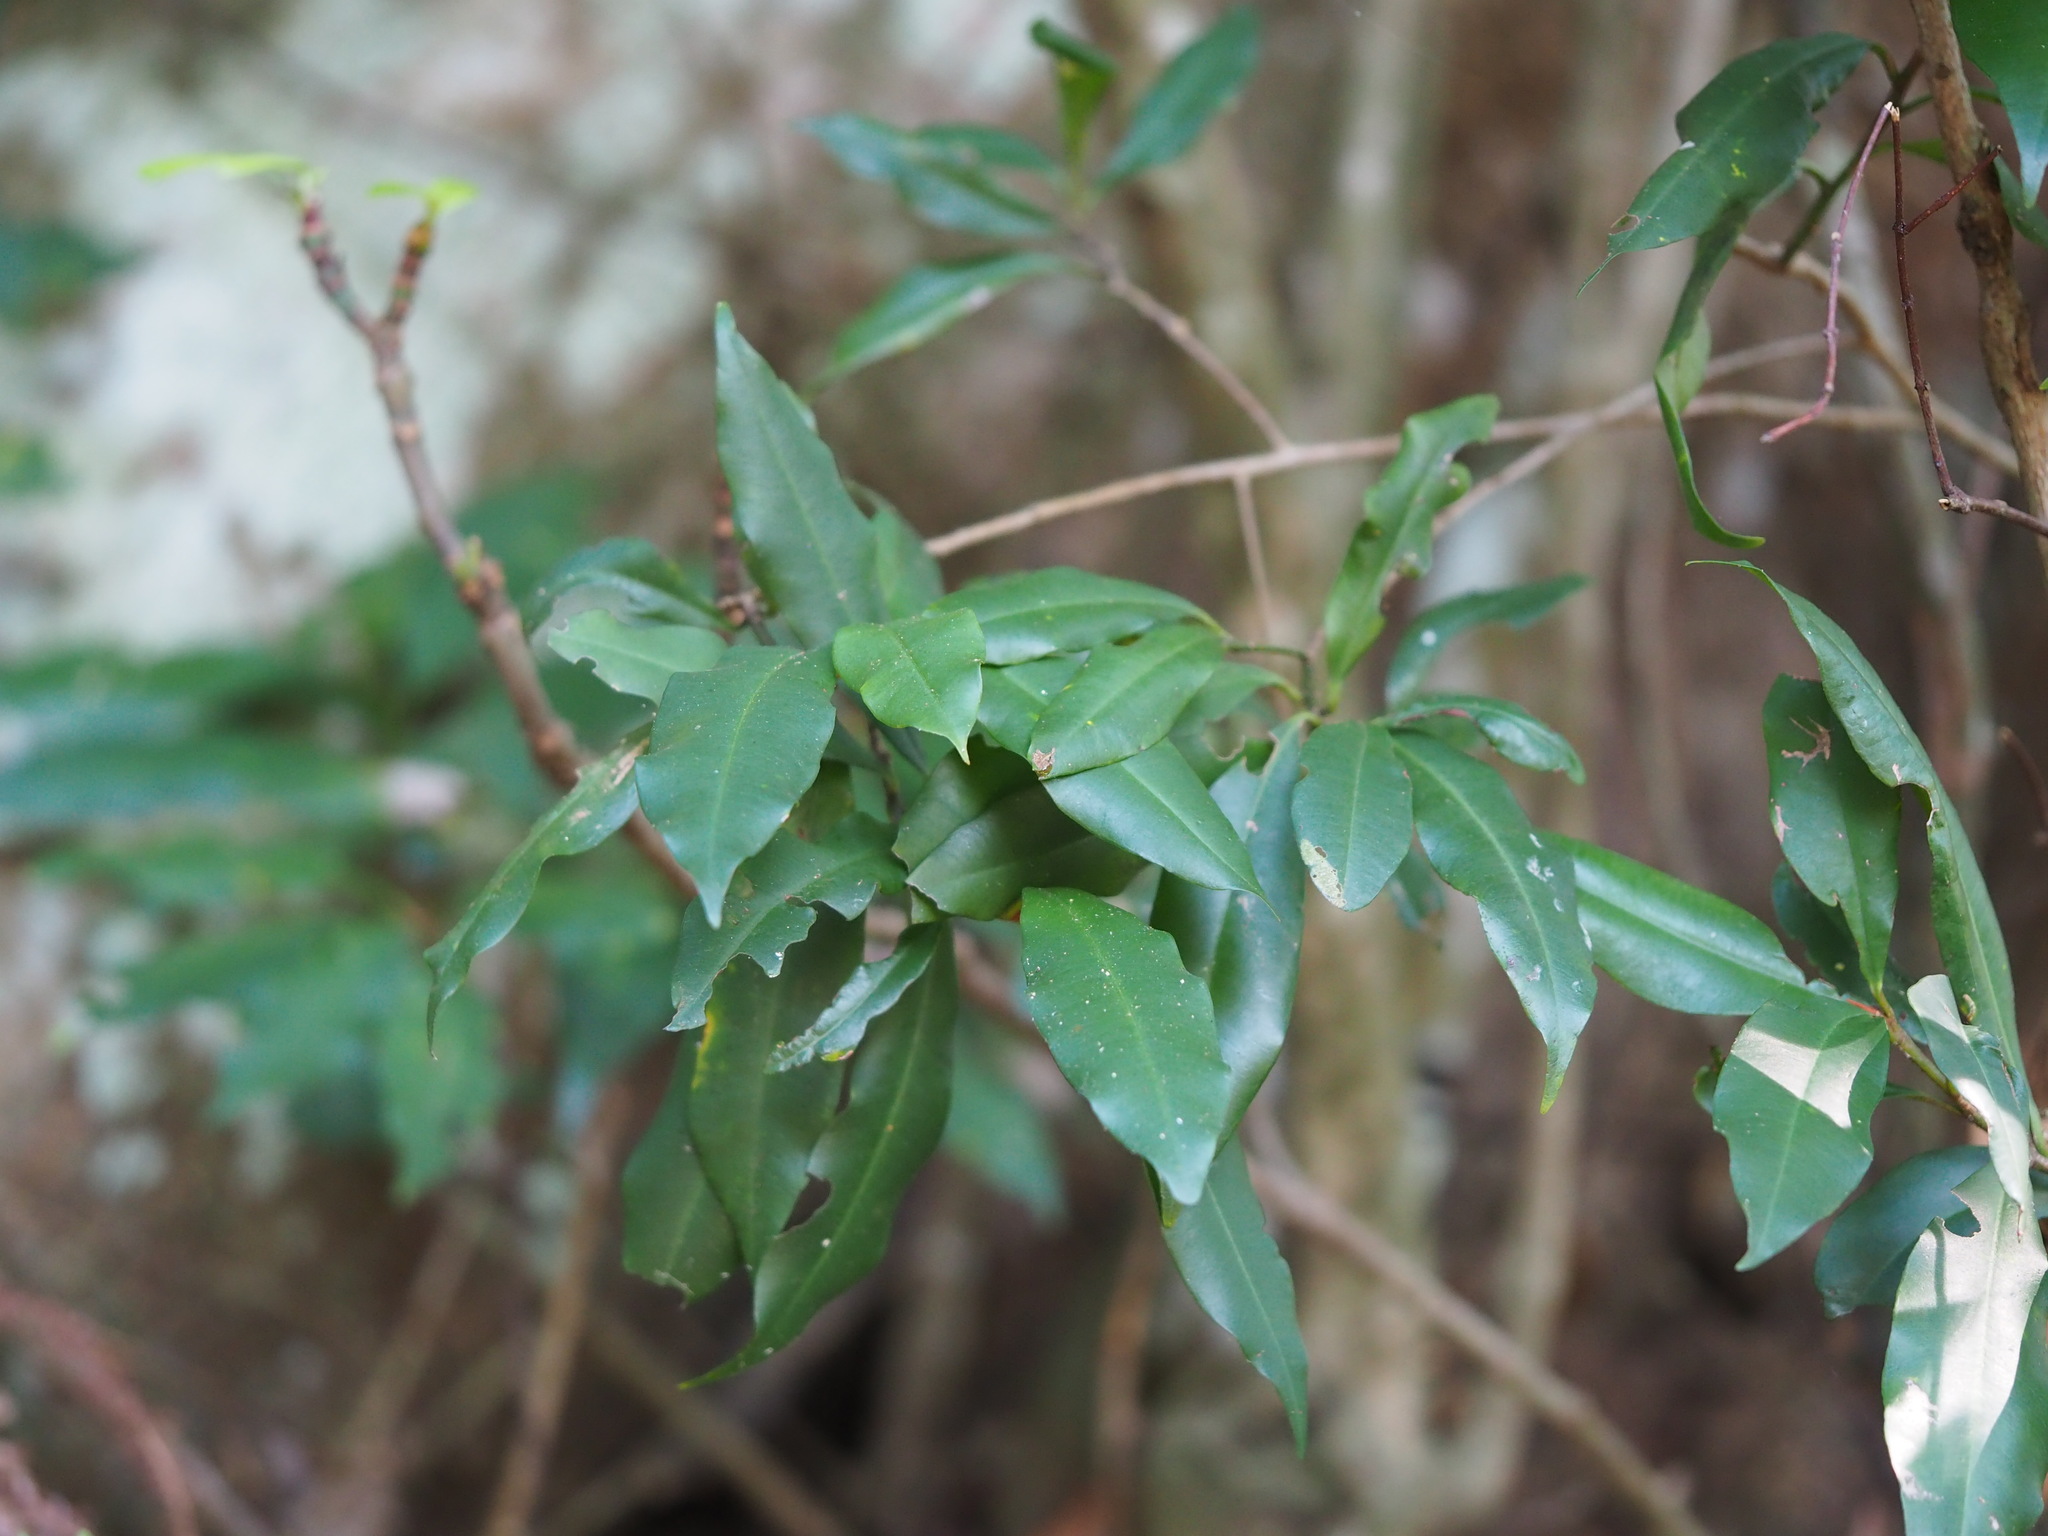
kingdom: Plantae
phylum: Tracheophyta
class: Magnoliopsida
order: Ericales
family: Primulaceae
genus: Ardisia
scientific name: Ardisia quinquegona
